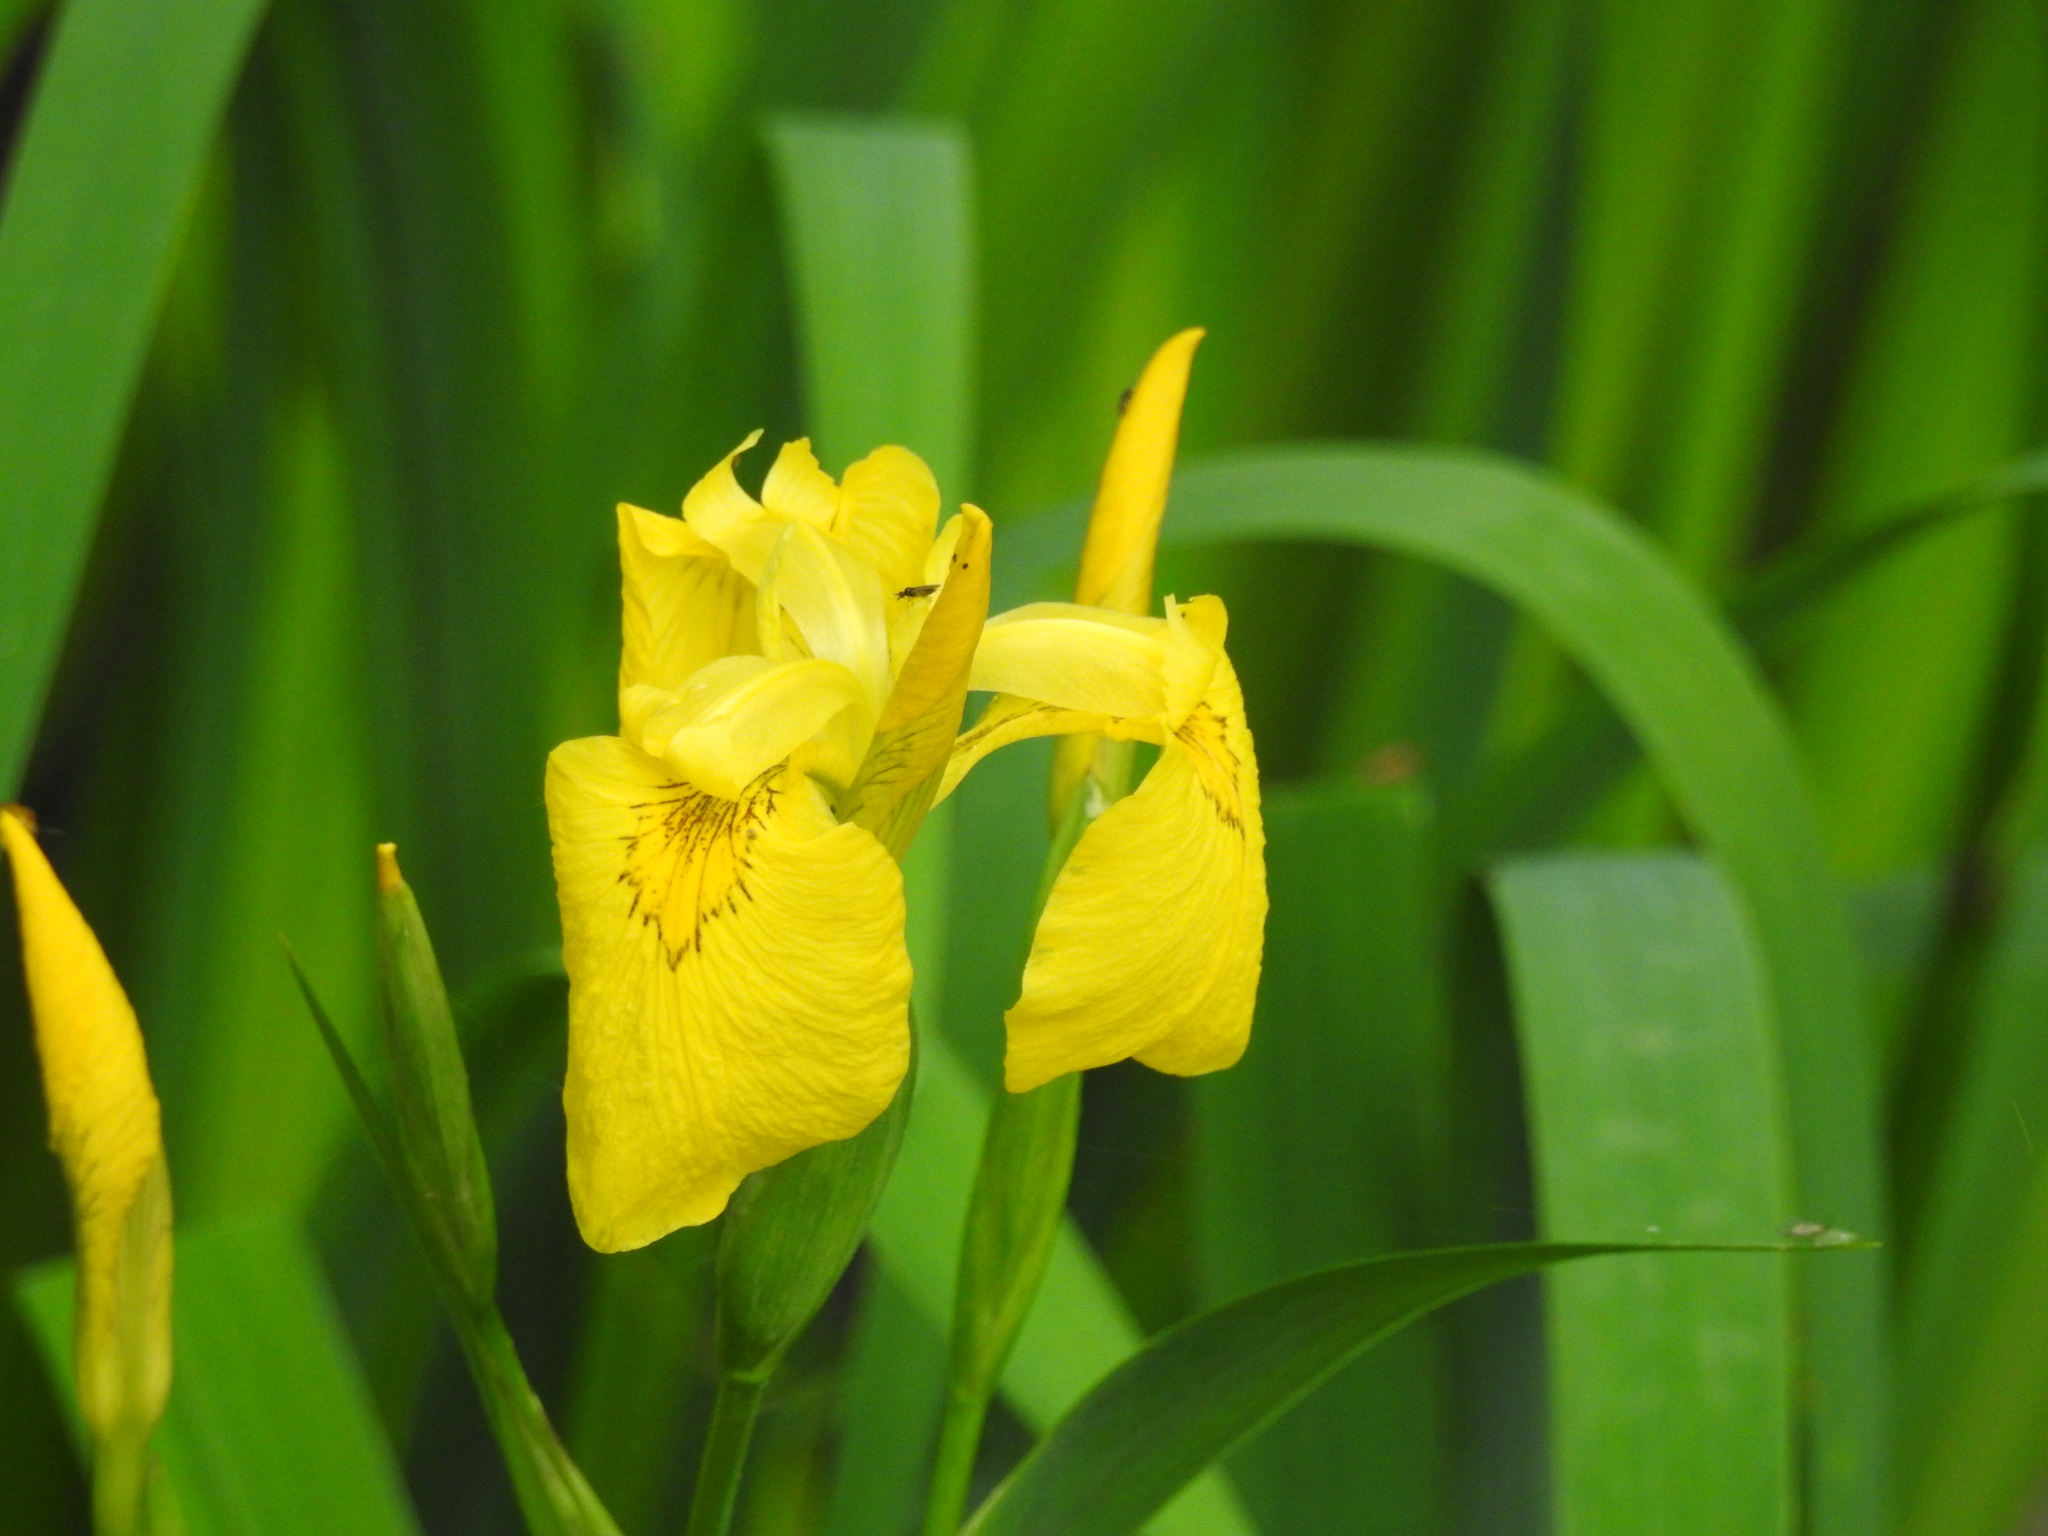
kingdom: Plantae
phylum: Tracheophyta
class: Liliopsida
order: Asparagales
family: Iridaceae
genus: Iris
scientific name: Iris pseudacorus
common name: Yellow flag
